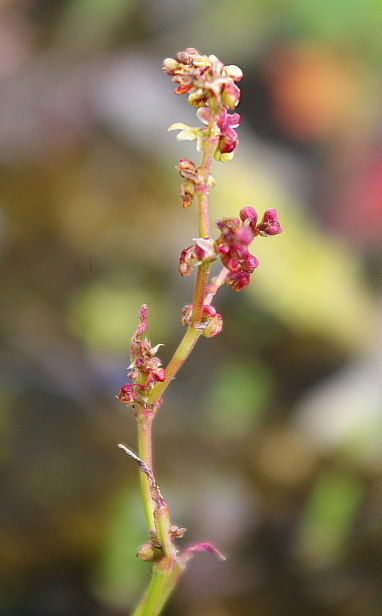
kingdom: Plantae
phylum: Tracheophyta
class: Magnoliopsida
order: Caryophyllales
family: Polygonaceae
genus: Rumex
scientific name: Rumex acetosella
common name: Common sheep sorrel
